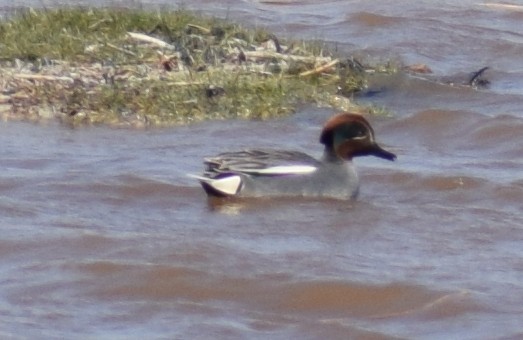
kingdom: Animalia
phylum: Chordata
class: Aves
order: Anseriformes
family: Anatidae
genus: Anas
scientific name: Anas crecca
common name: Eurasian teal
